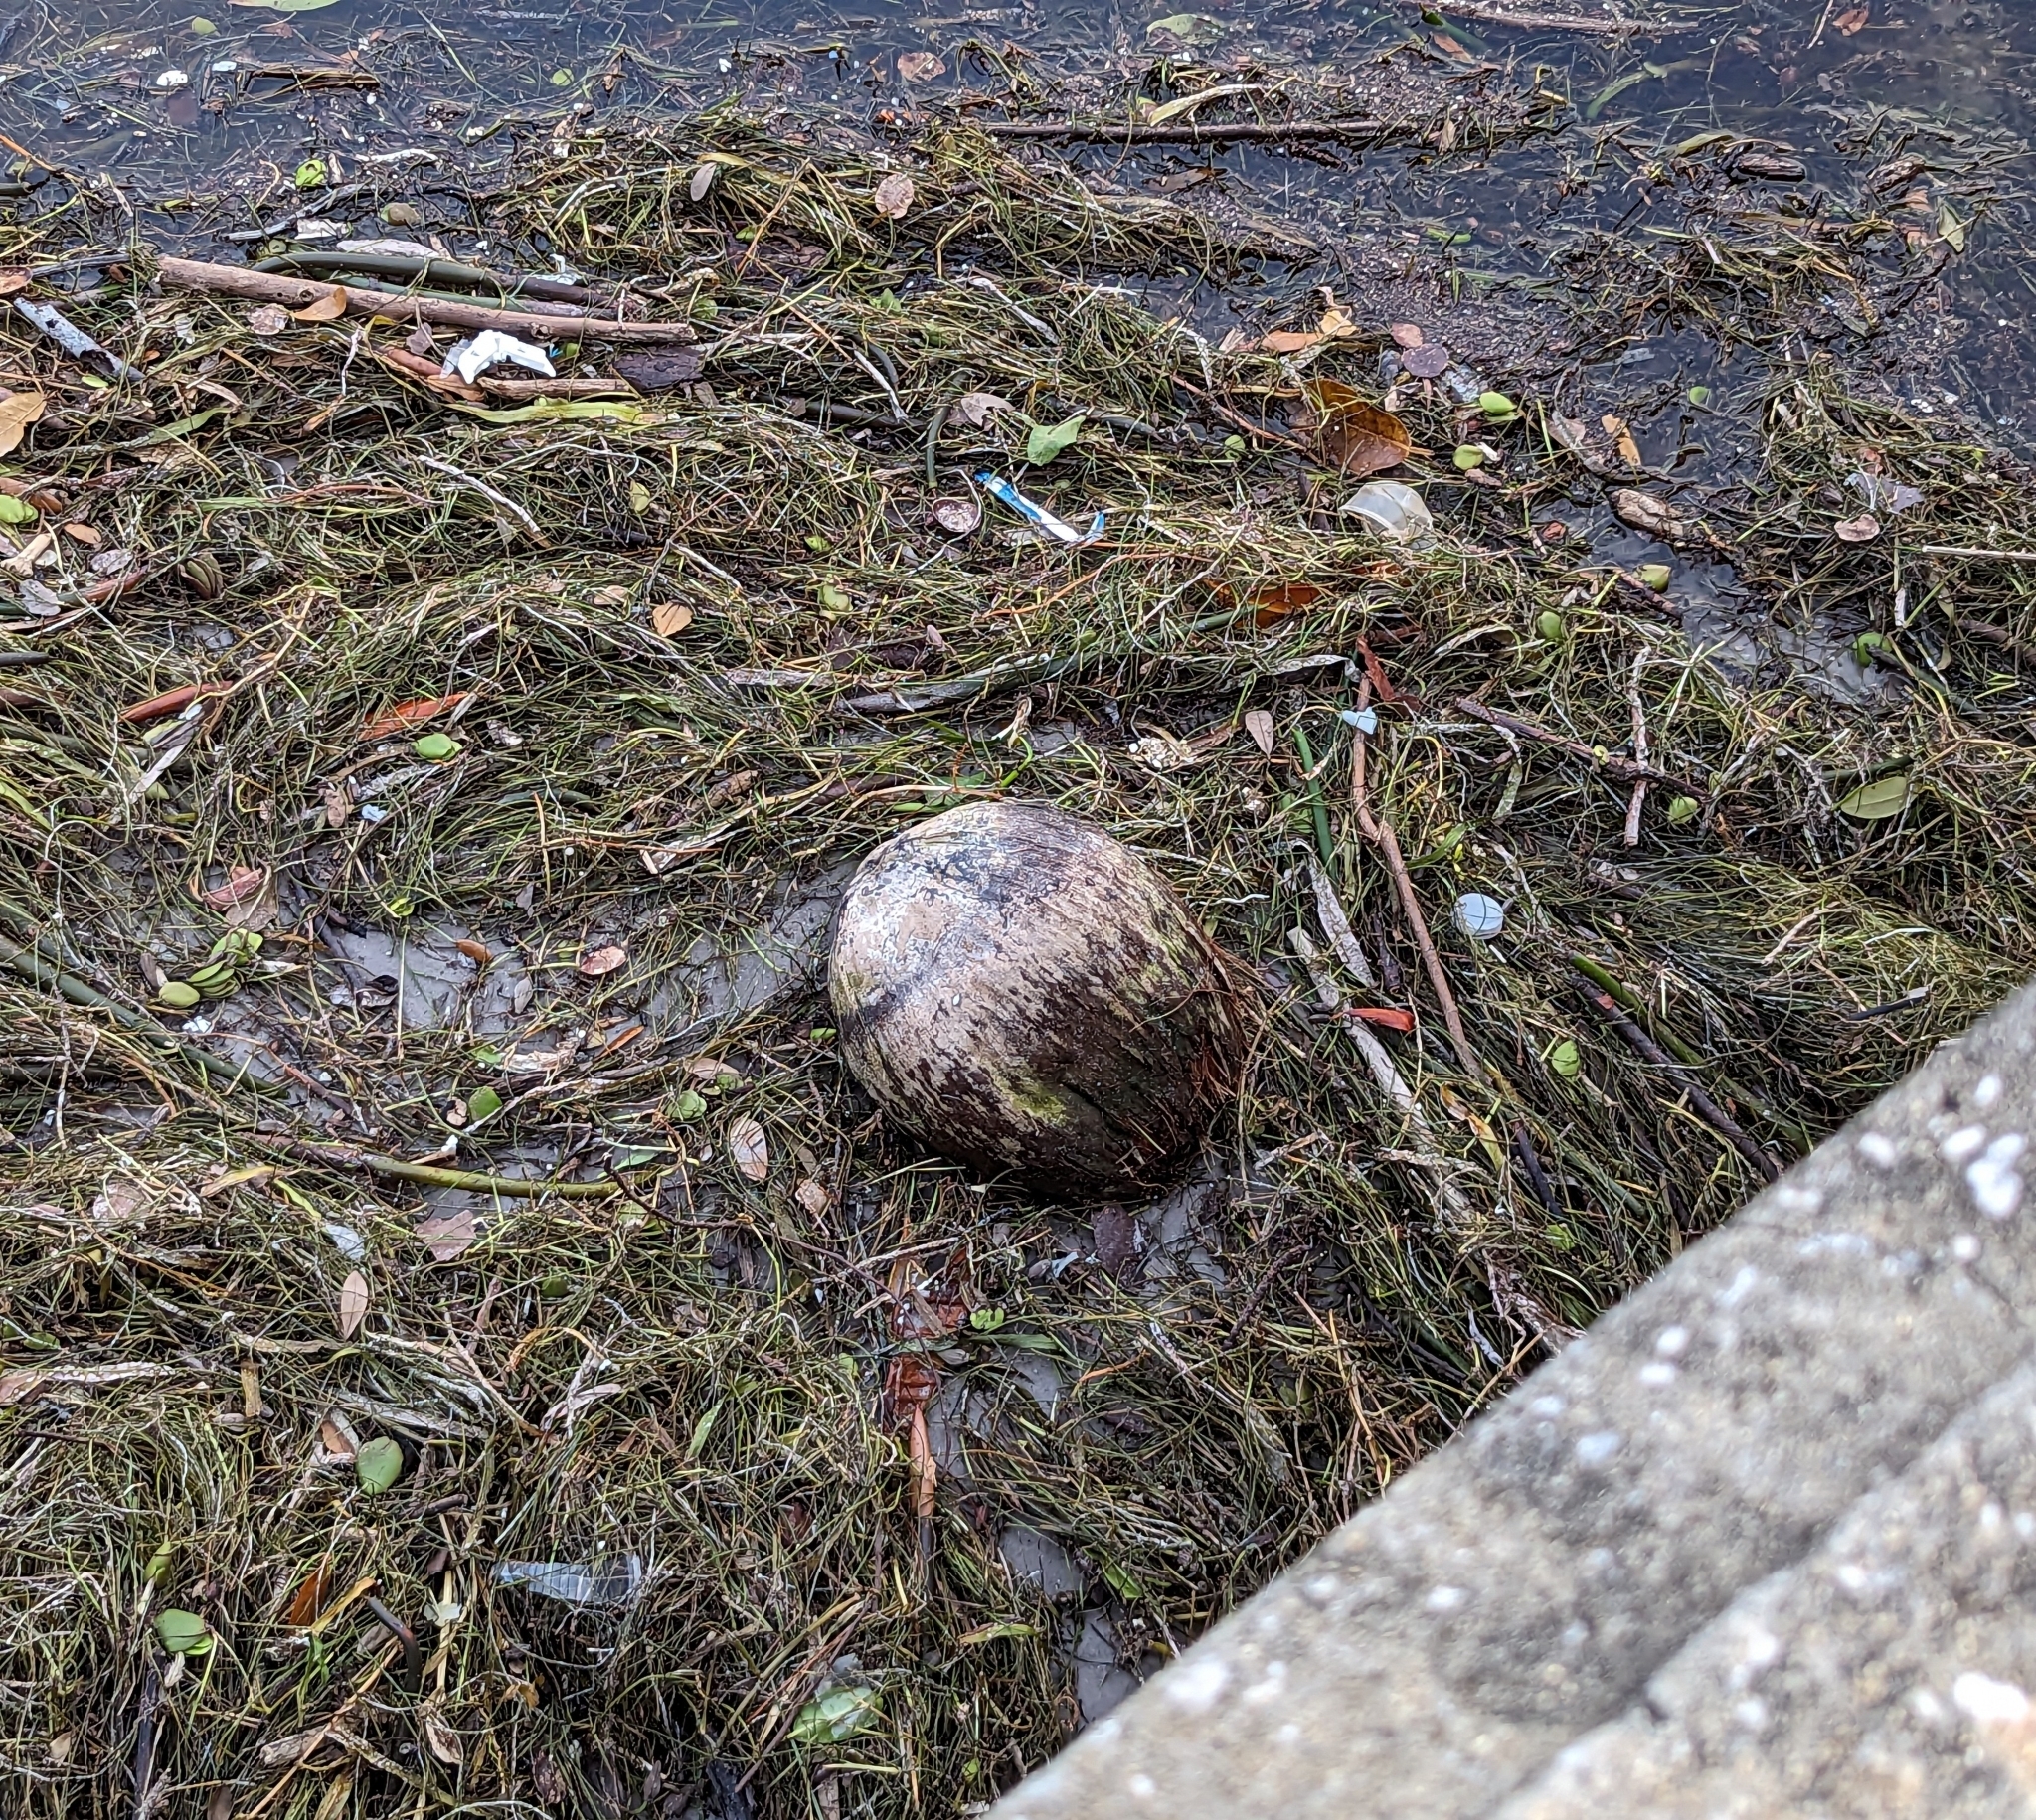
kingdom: Plantae
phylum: Tracheophyta
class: Liliopsida
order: Arecales
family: Arecaceae
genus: Cocos
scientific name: Cocos nucifera
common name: Coconut palm
